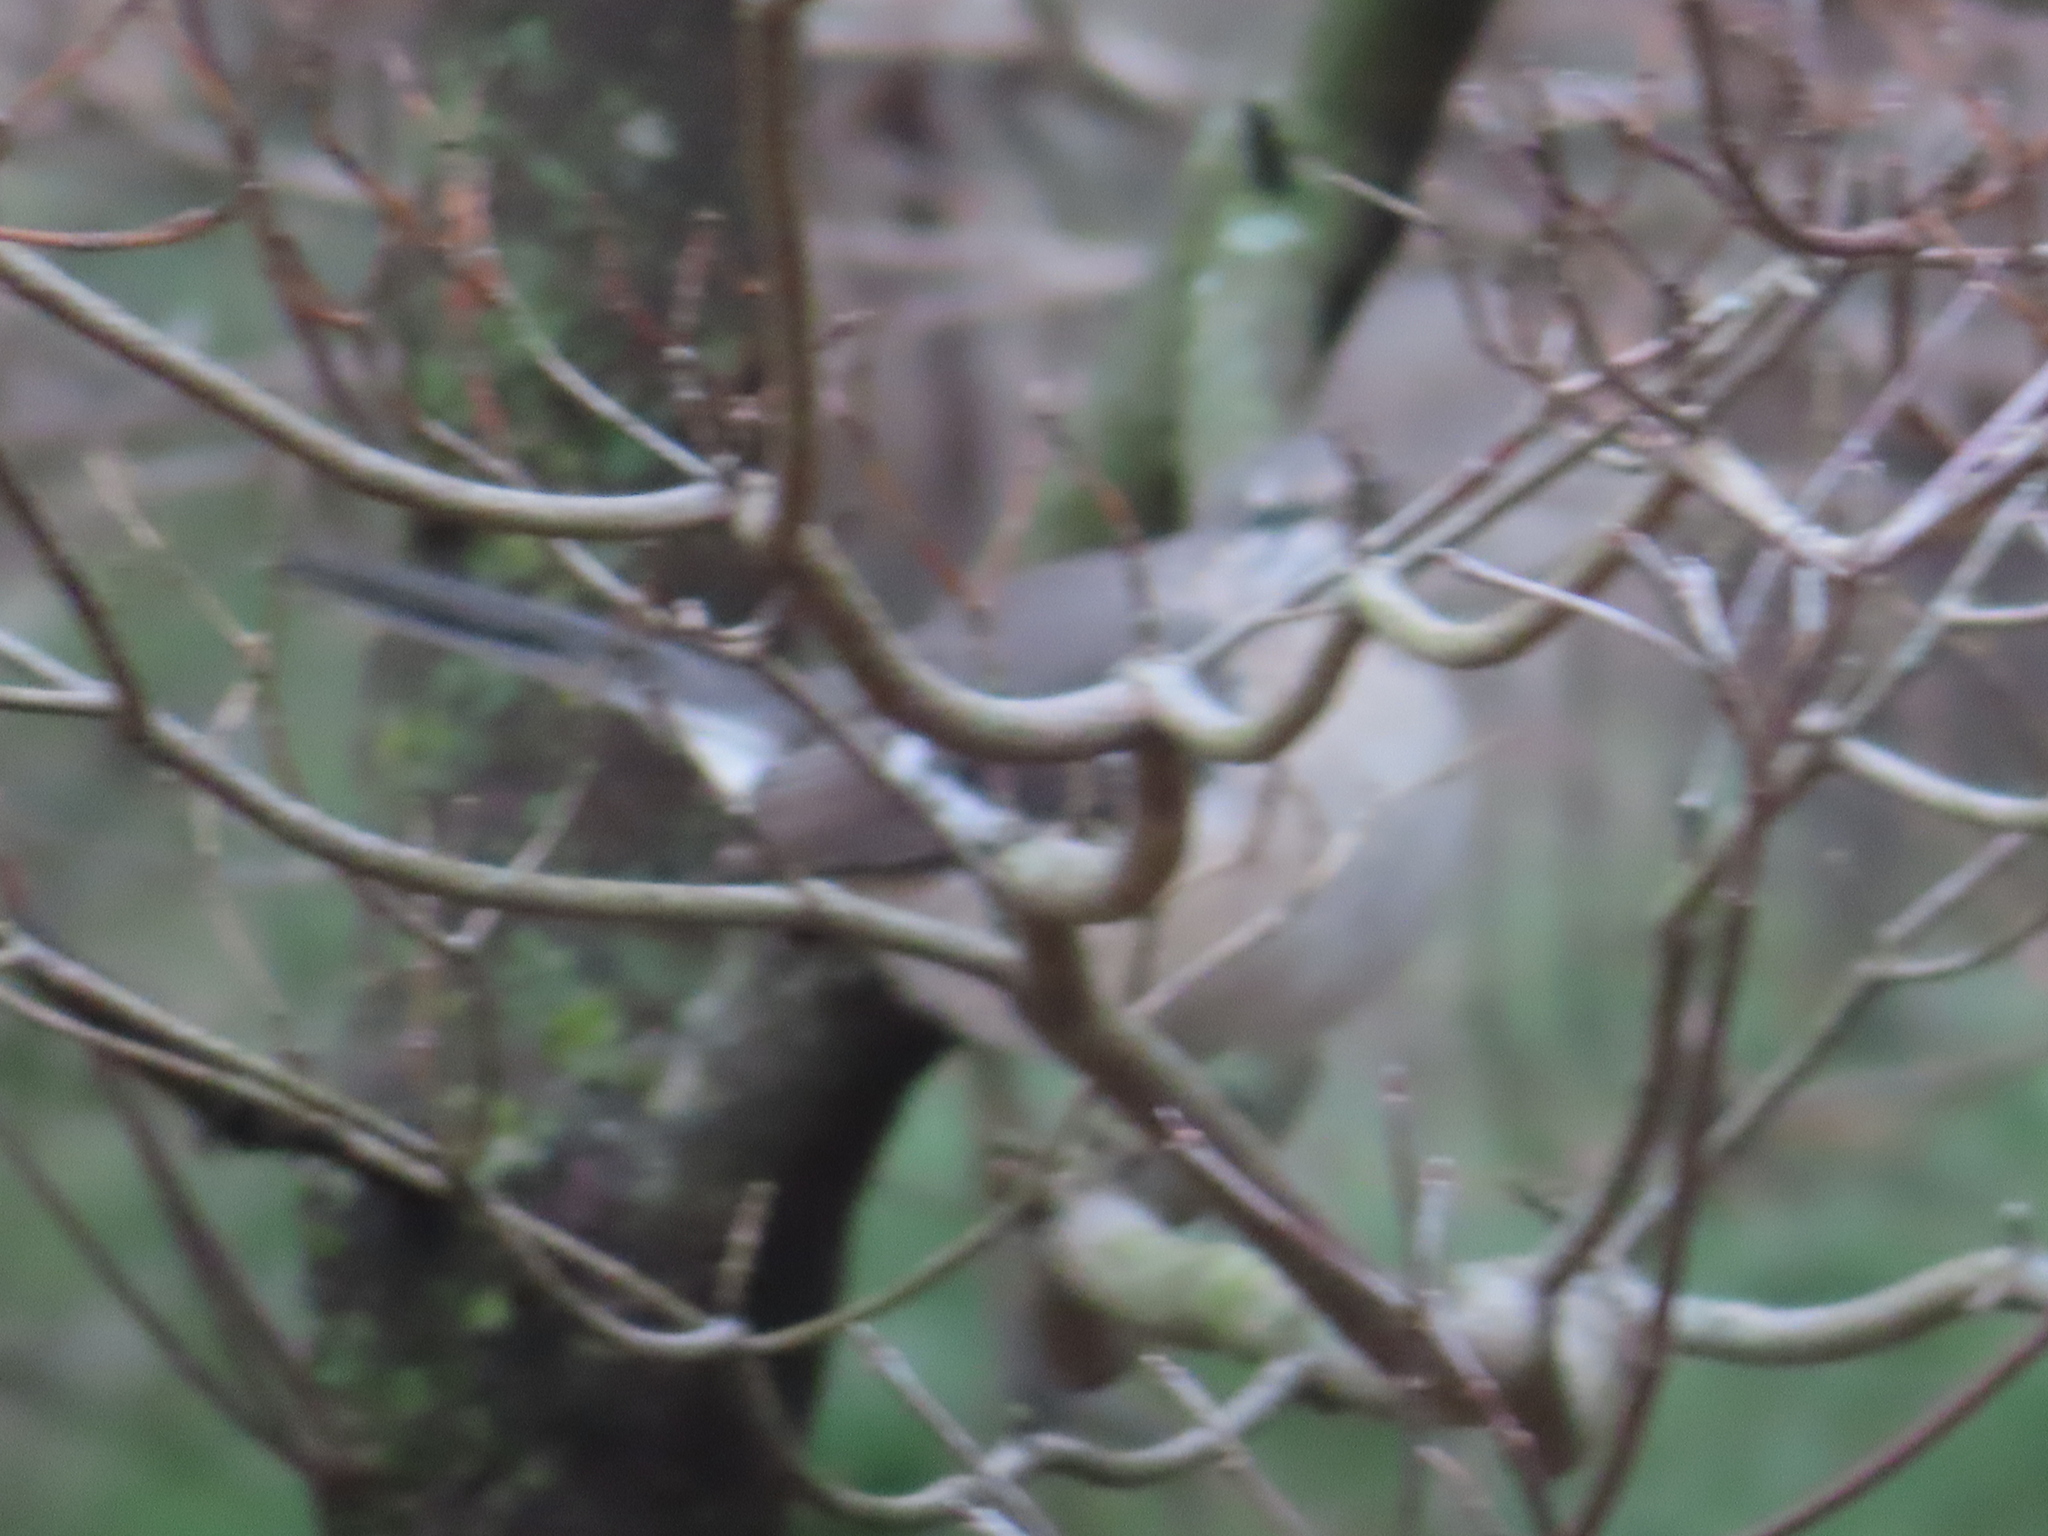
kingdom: Animalia
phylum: Chordata
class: Aves
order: Passeriformes
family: Mimidae
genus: Mimus
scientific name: Mimus polyglottos
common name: Northern mockingbird
